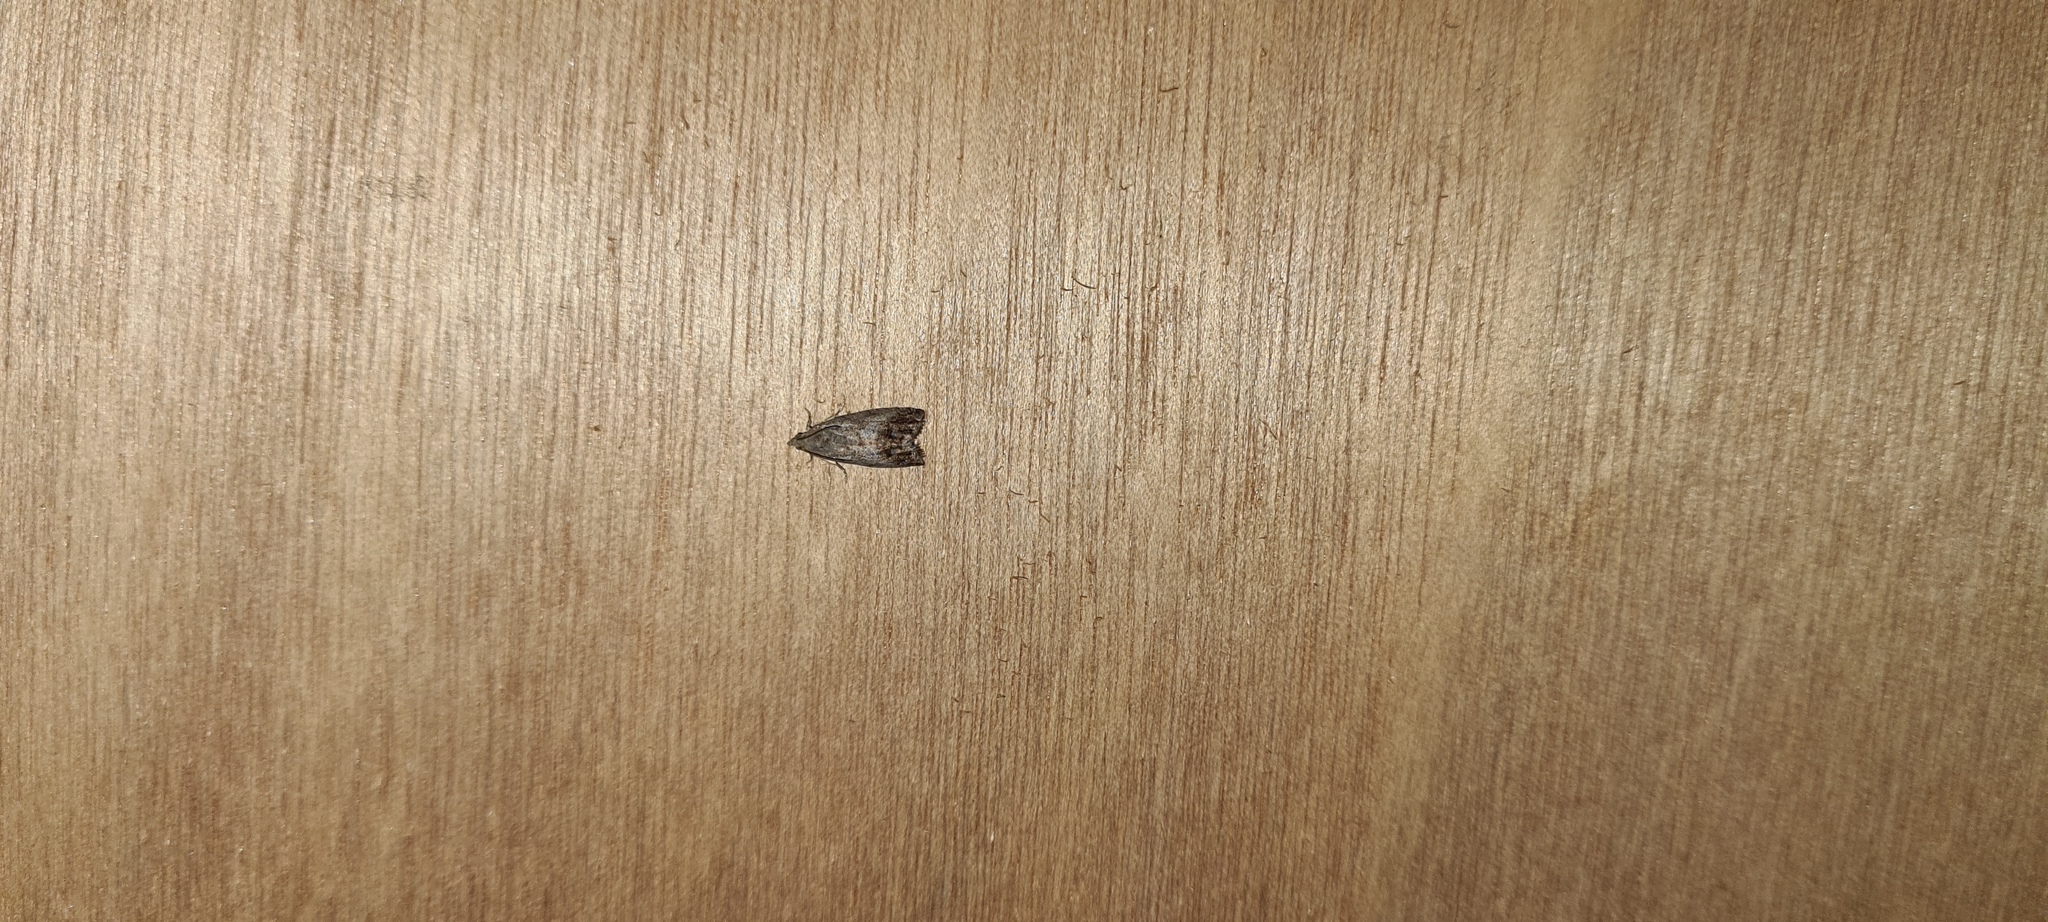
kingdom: Animalia
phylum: Arthropoda
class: Insecta
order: Lepidoptera
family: Tortricidae
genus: Cydia
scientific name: Cydia splendana
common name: De: kastanienwickler, eichenwickler es: oruga de la castaña fr: carpocapse des châtaignes it: cidia o tortrice tardiva delle castagne pt: bichado das castanhas gb: acorn moth, chestnut fruit tortrix
